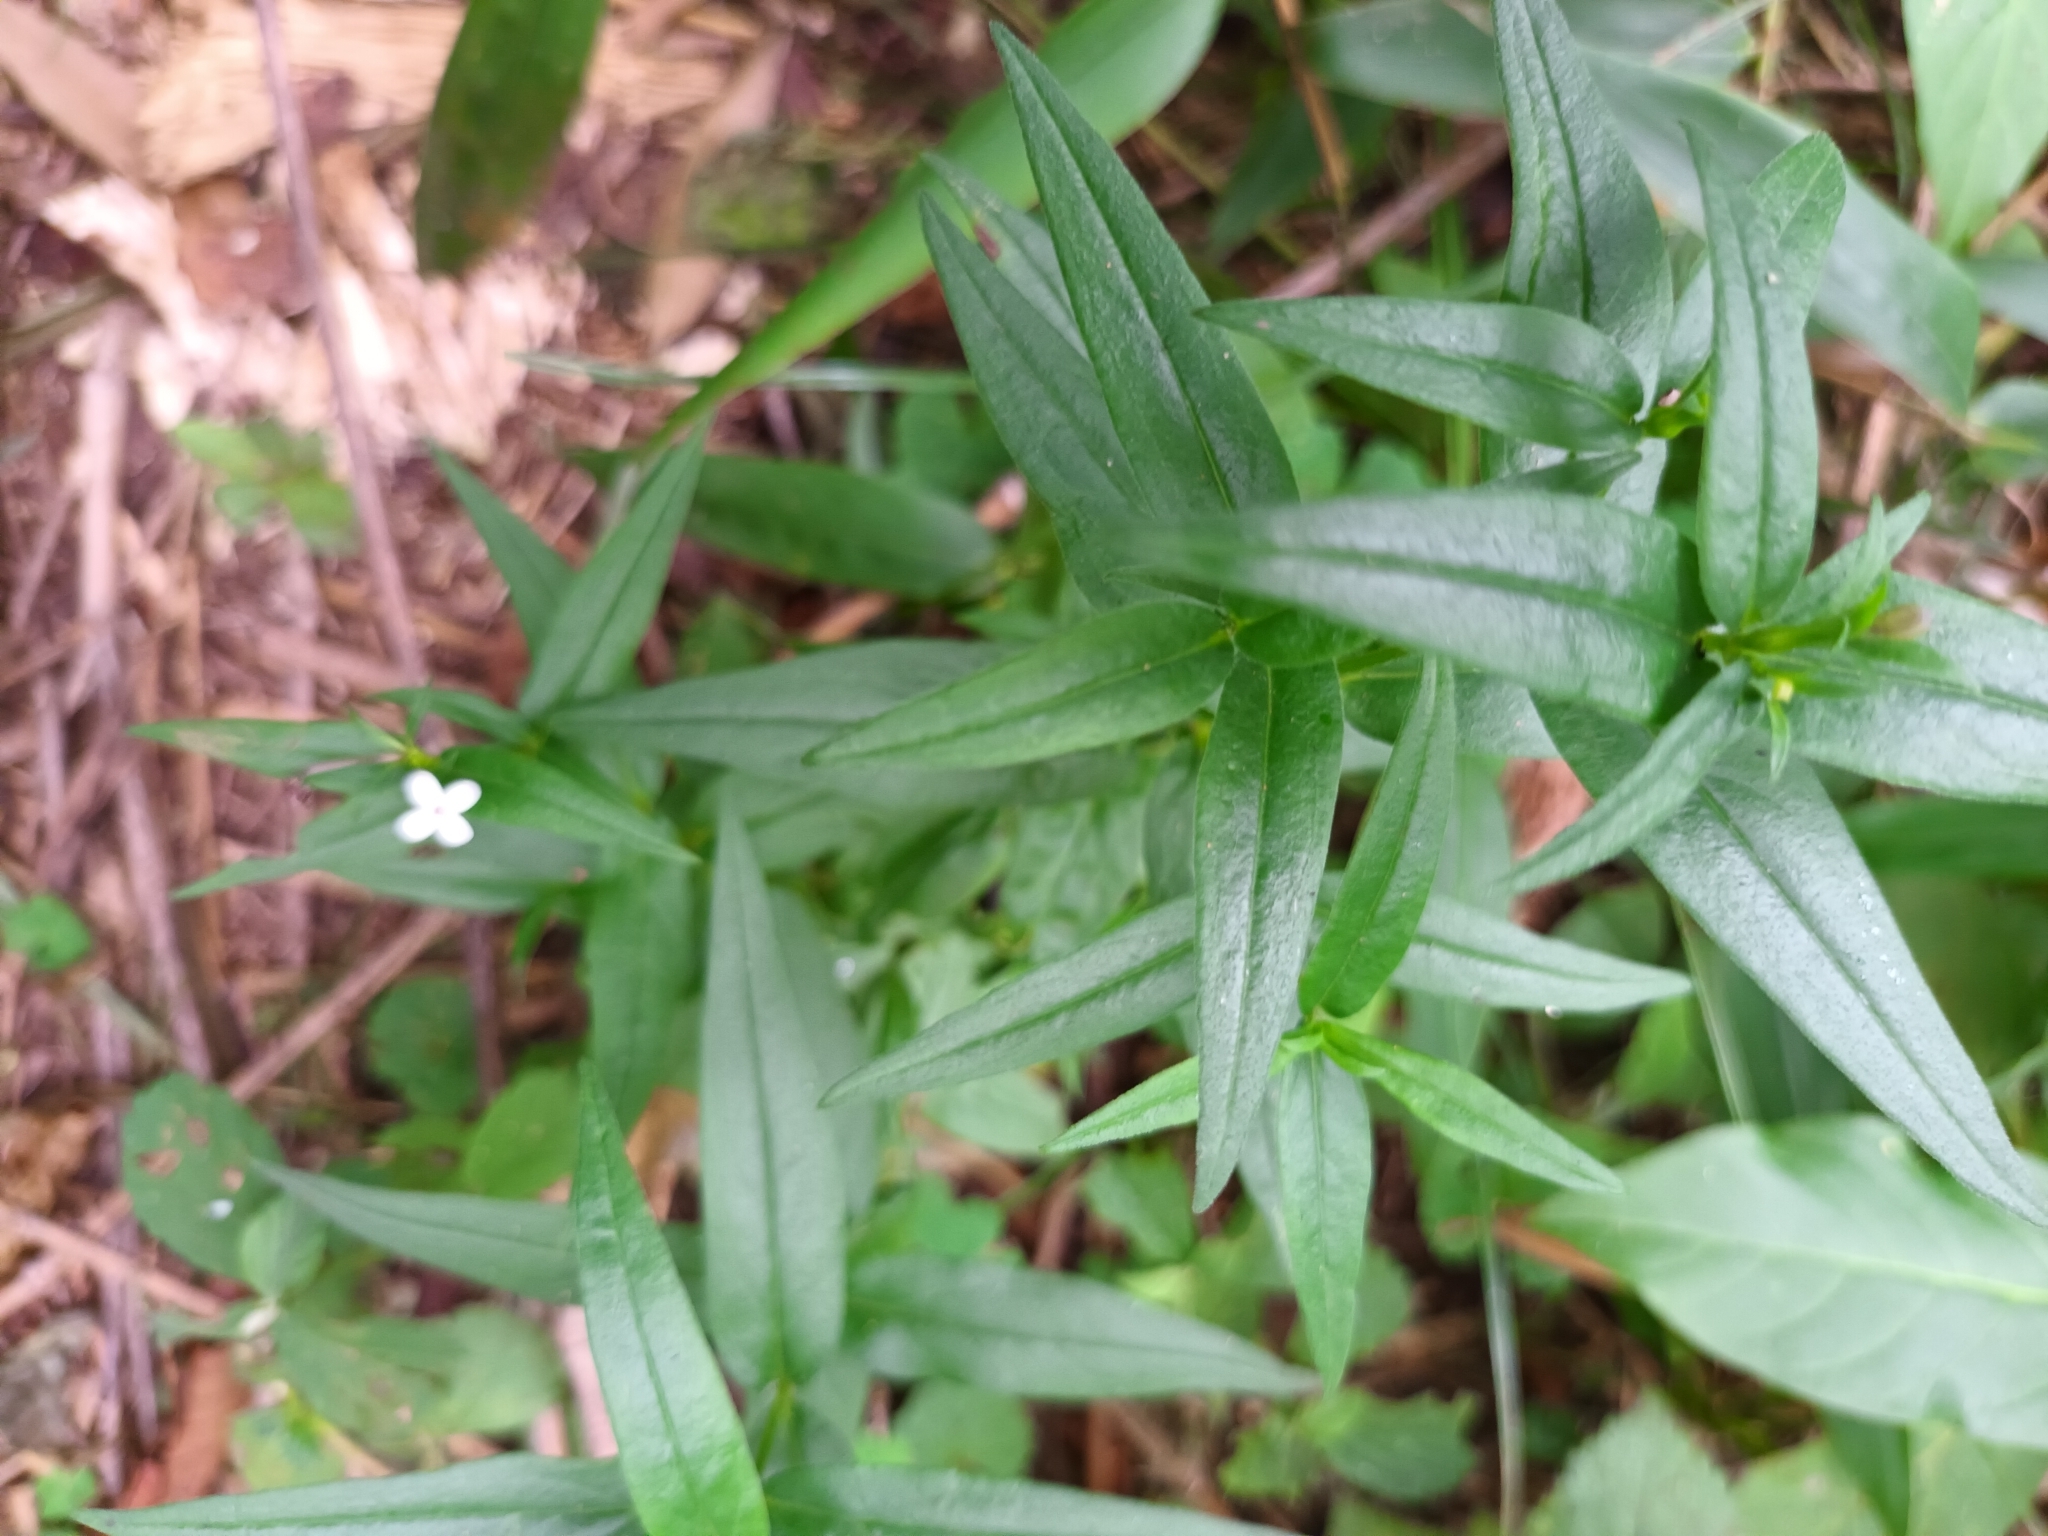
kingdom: Plantae
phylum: Tracheophyta
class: Magnoliopsida
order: Gentianales
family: Rubiaceae
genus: Conostomium
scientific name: Conostomium natalense
